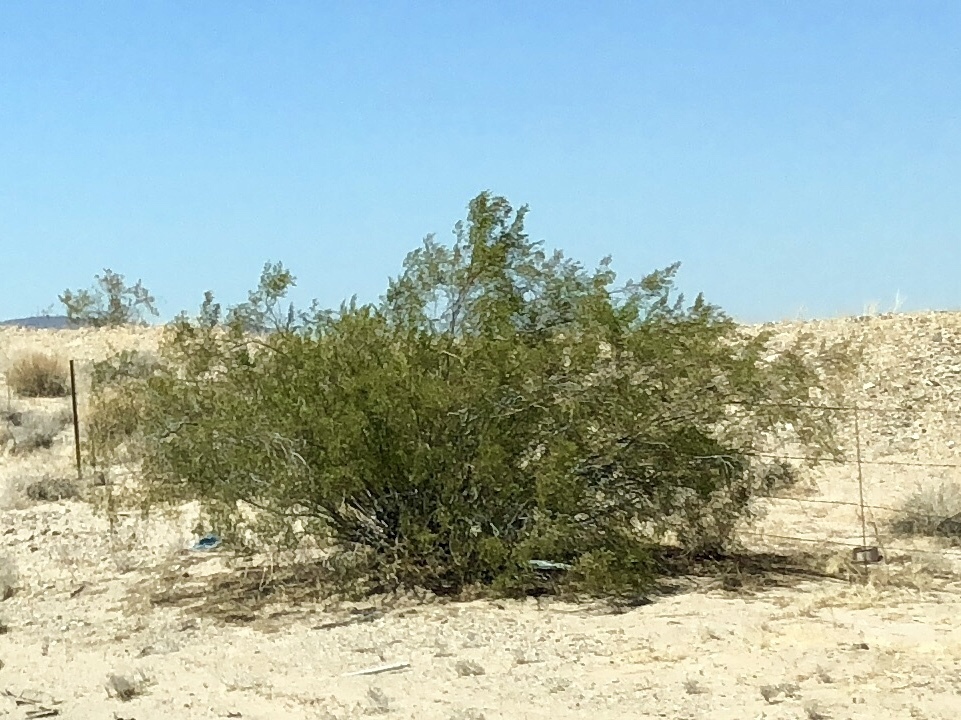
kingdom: Plantae
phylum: Tracheophyta
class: Magnoliopsida
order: Zygophyllales
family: Zygophyllaceae
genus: Larrea
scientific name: Larrea tridentata
